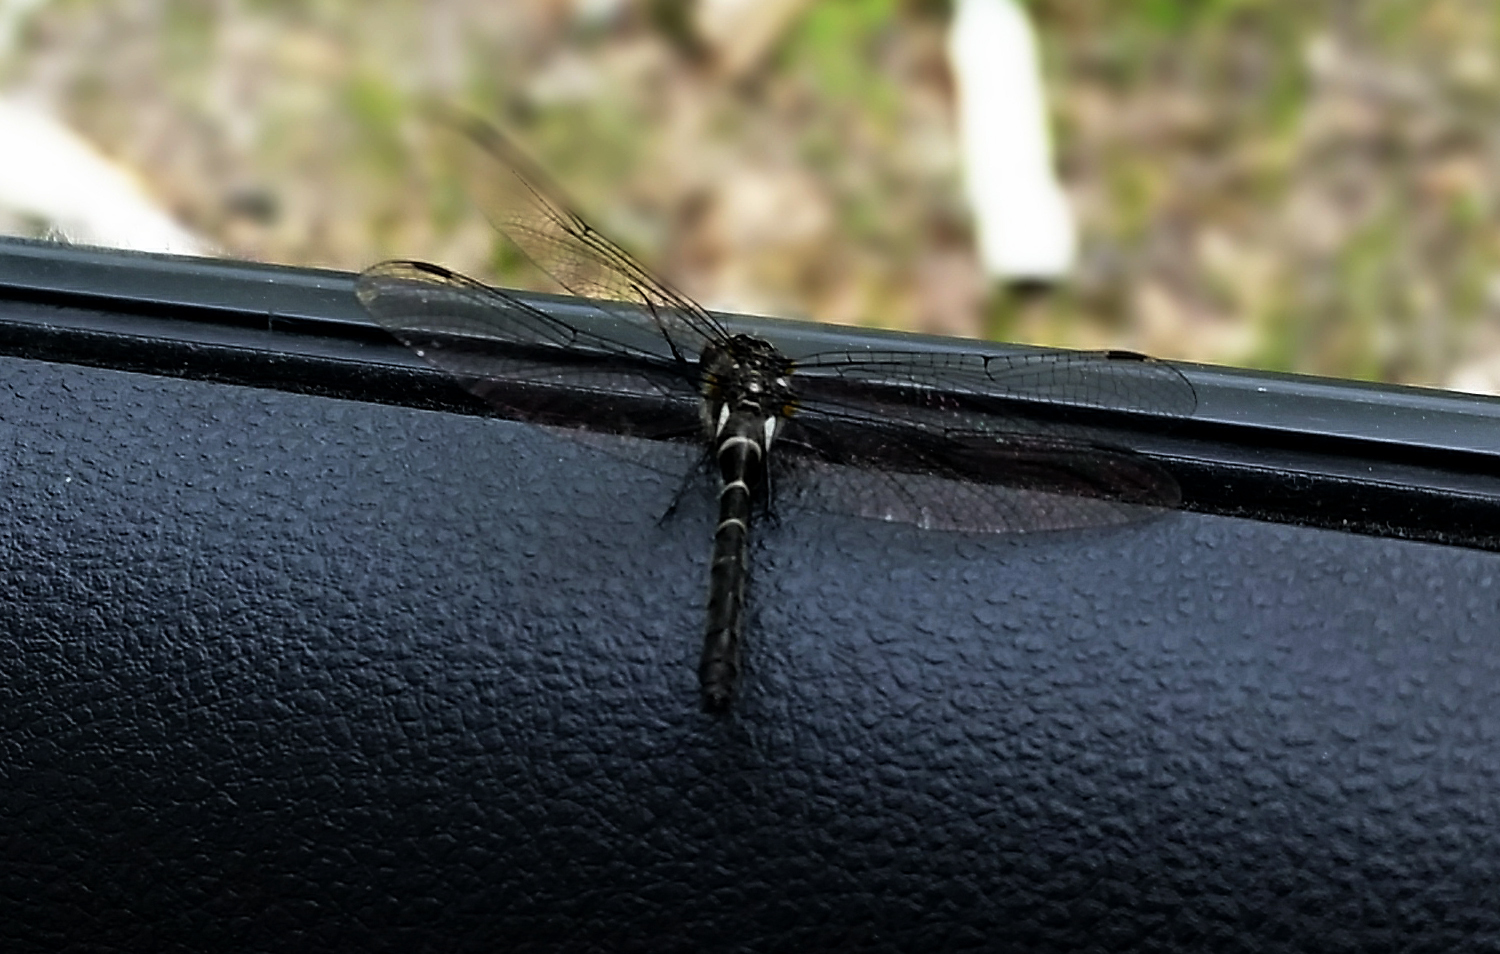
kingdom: Animalia
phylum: Arthropoda
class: Insecta
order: Odonata
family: Corduliidae
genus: Williamsonia
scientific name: Williamsonia fletcheri
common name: Ebony boghaunter
